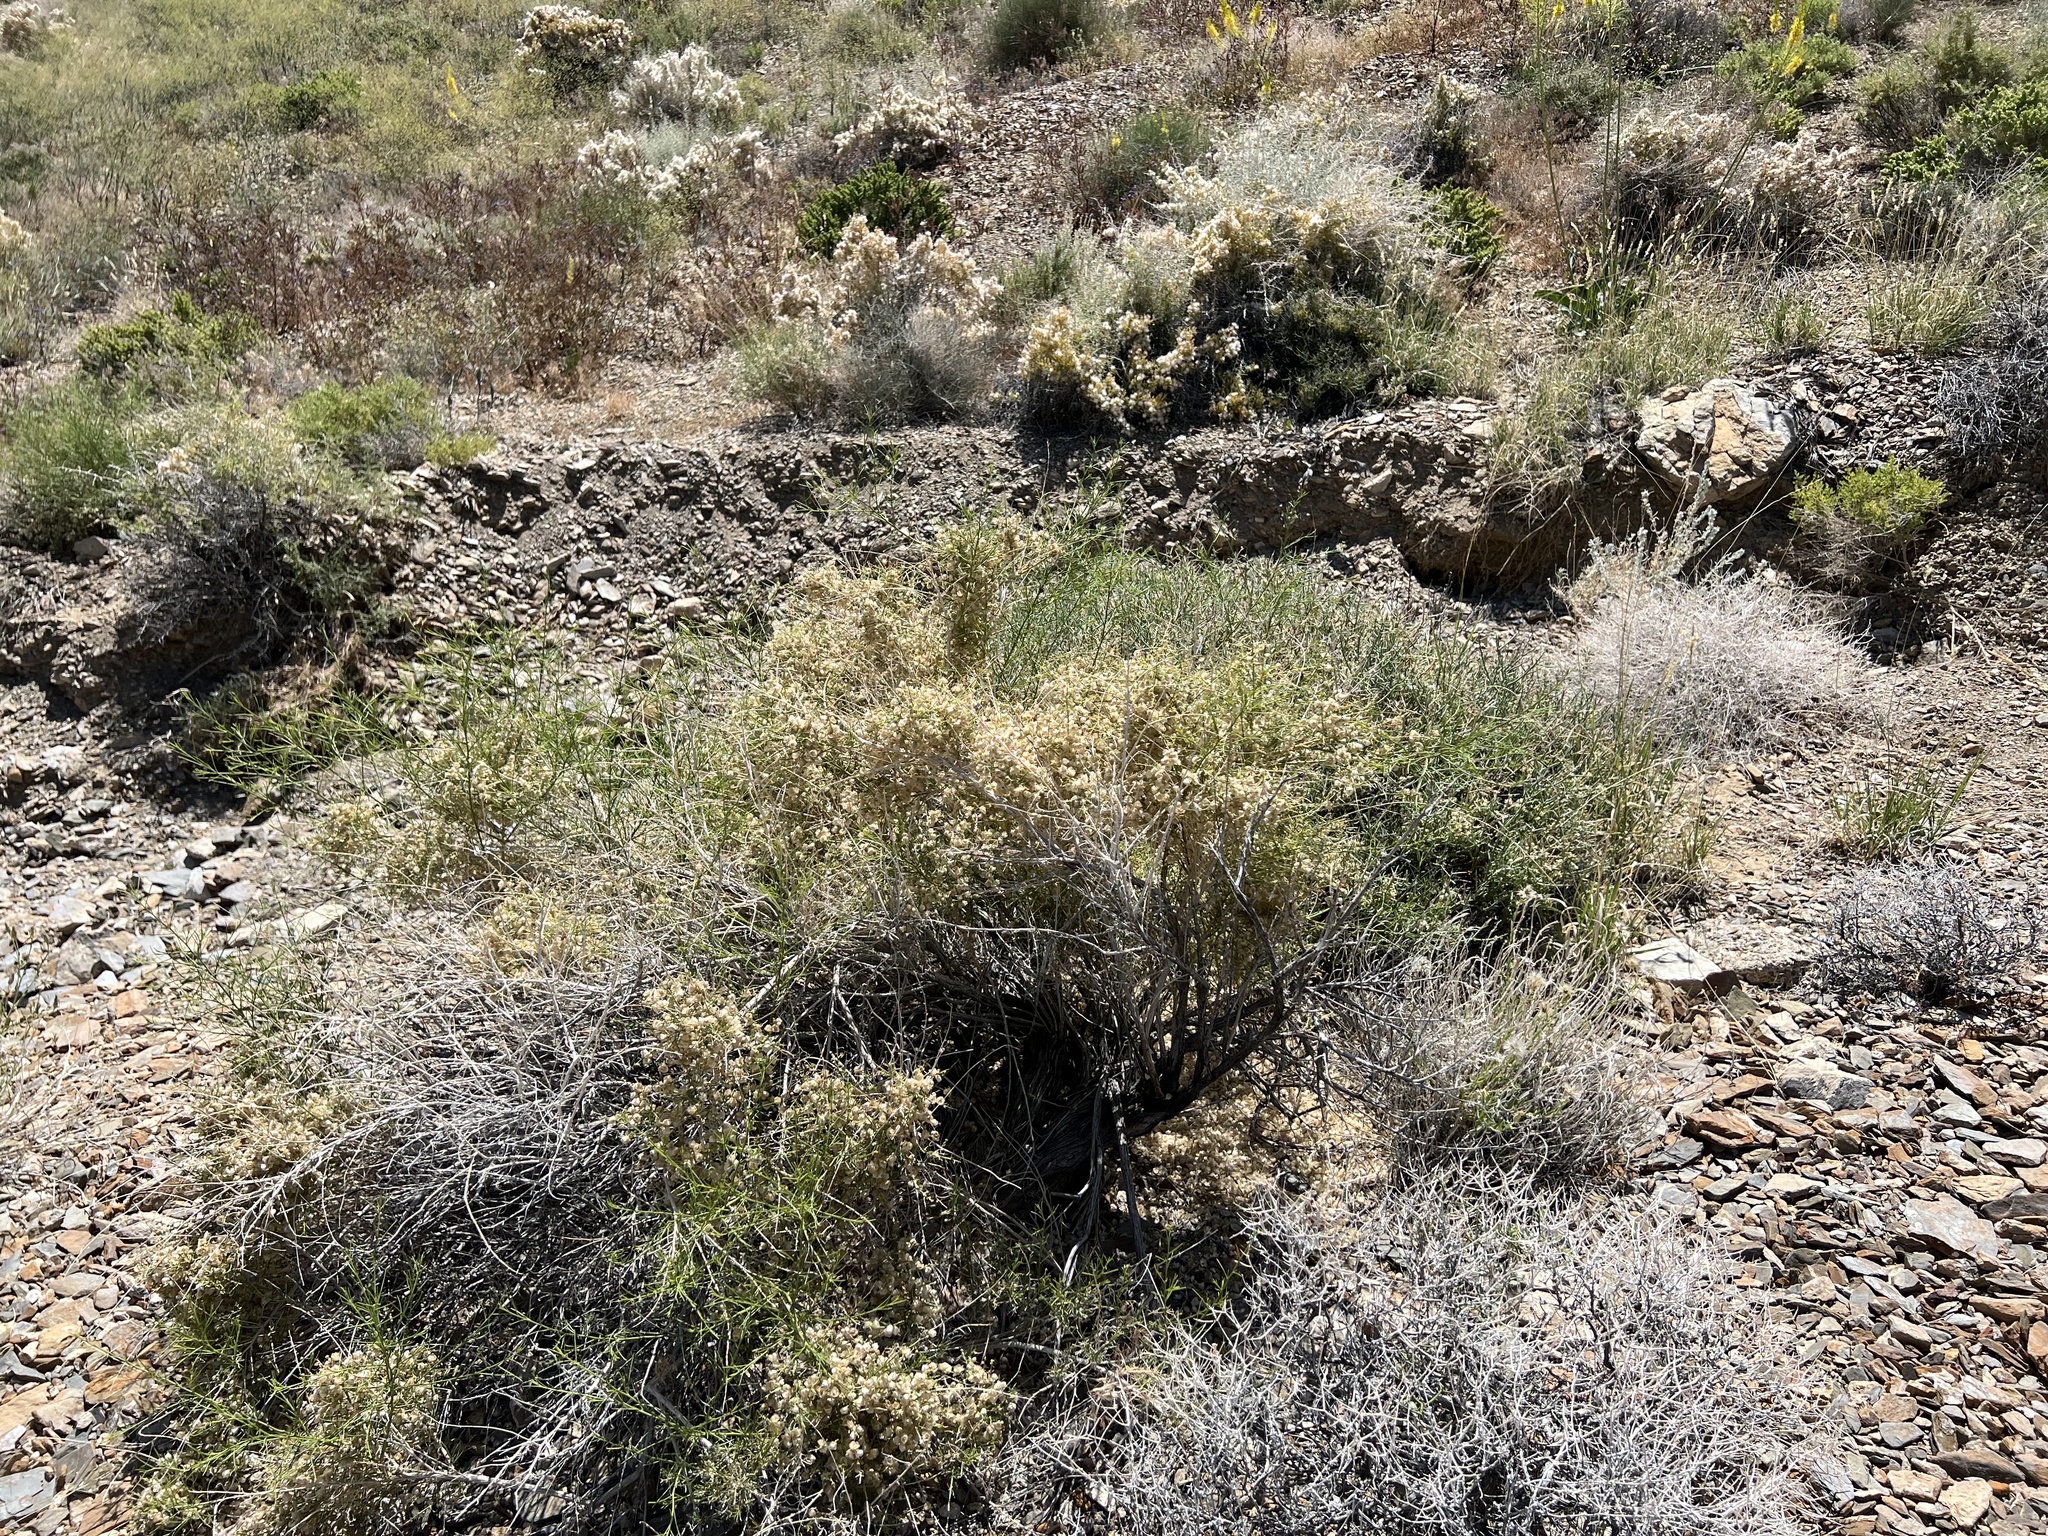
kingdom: Plantae
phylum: Tracheophyta
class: Magnoliopsida
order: Asterales
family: Asteraceae
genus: Ambrosia
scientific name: Ambrosia salsola
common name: Burrobrush
